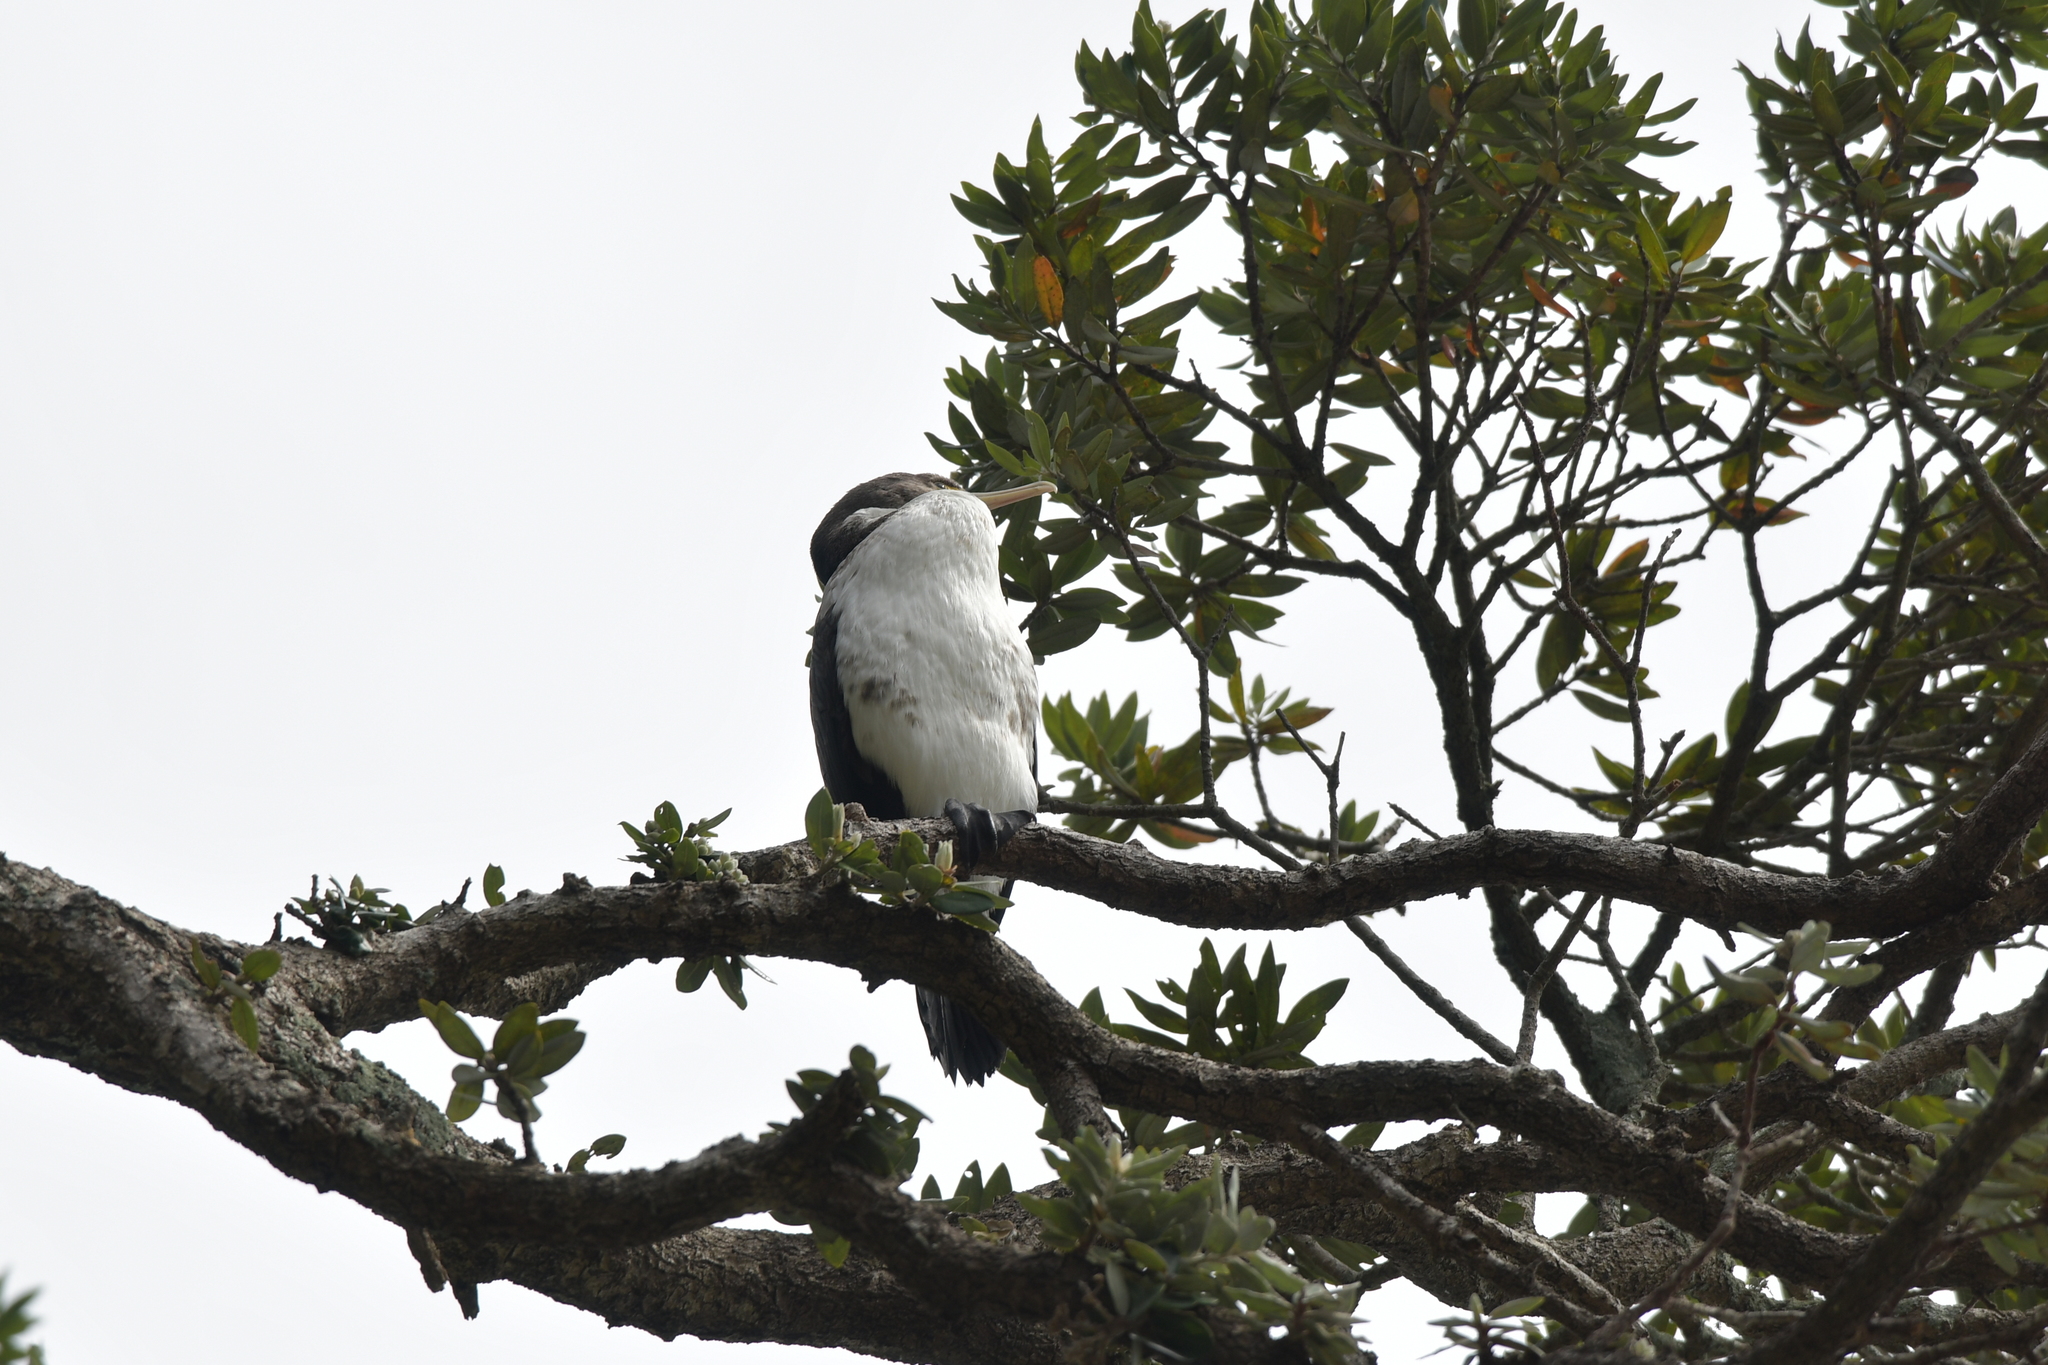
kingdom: Animalia
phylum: Chordata
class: Aves
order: Suliformes
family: Phalacrocoracidae
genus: Phalacrocorax
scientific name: Phalacrocorax varius
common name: Pied cormorant
